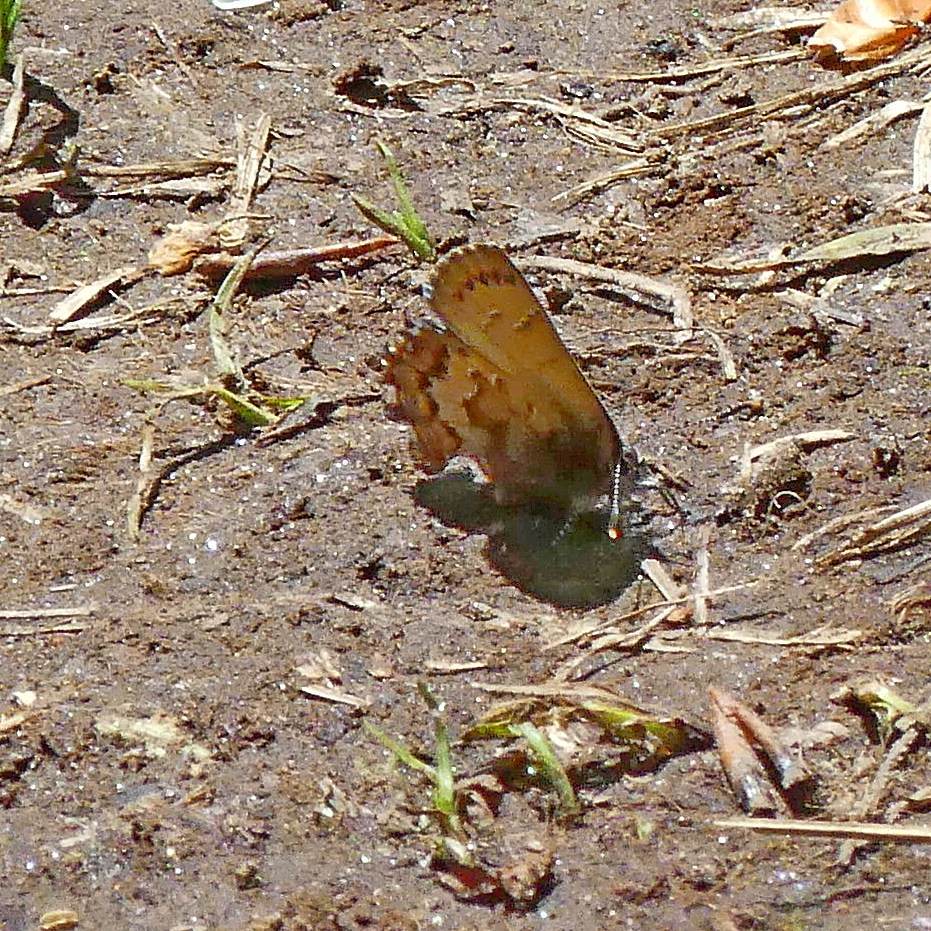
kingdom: Animalia
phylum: Arthropoda
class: Insecta
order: Lepidoptera
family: Lycaenidae
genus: Incisalia
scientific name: Incisalia niphon
